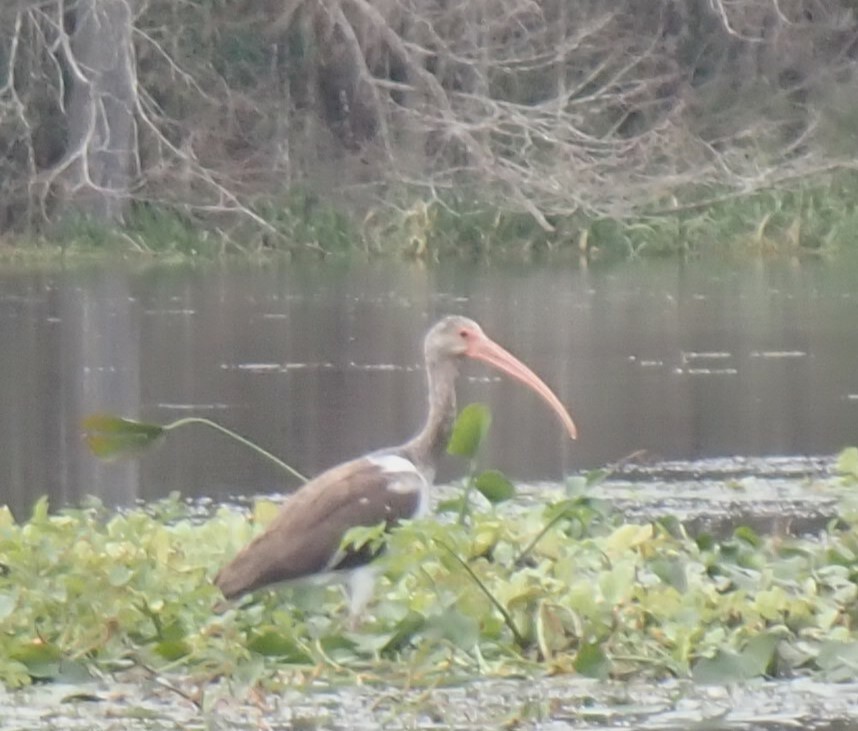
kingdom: Animalia
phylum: Chordata
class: Aves
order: Pelecaniformes
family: Threskiornithidae
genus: Eudocimus
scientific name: Eudocimus albus
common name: White ibis
